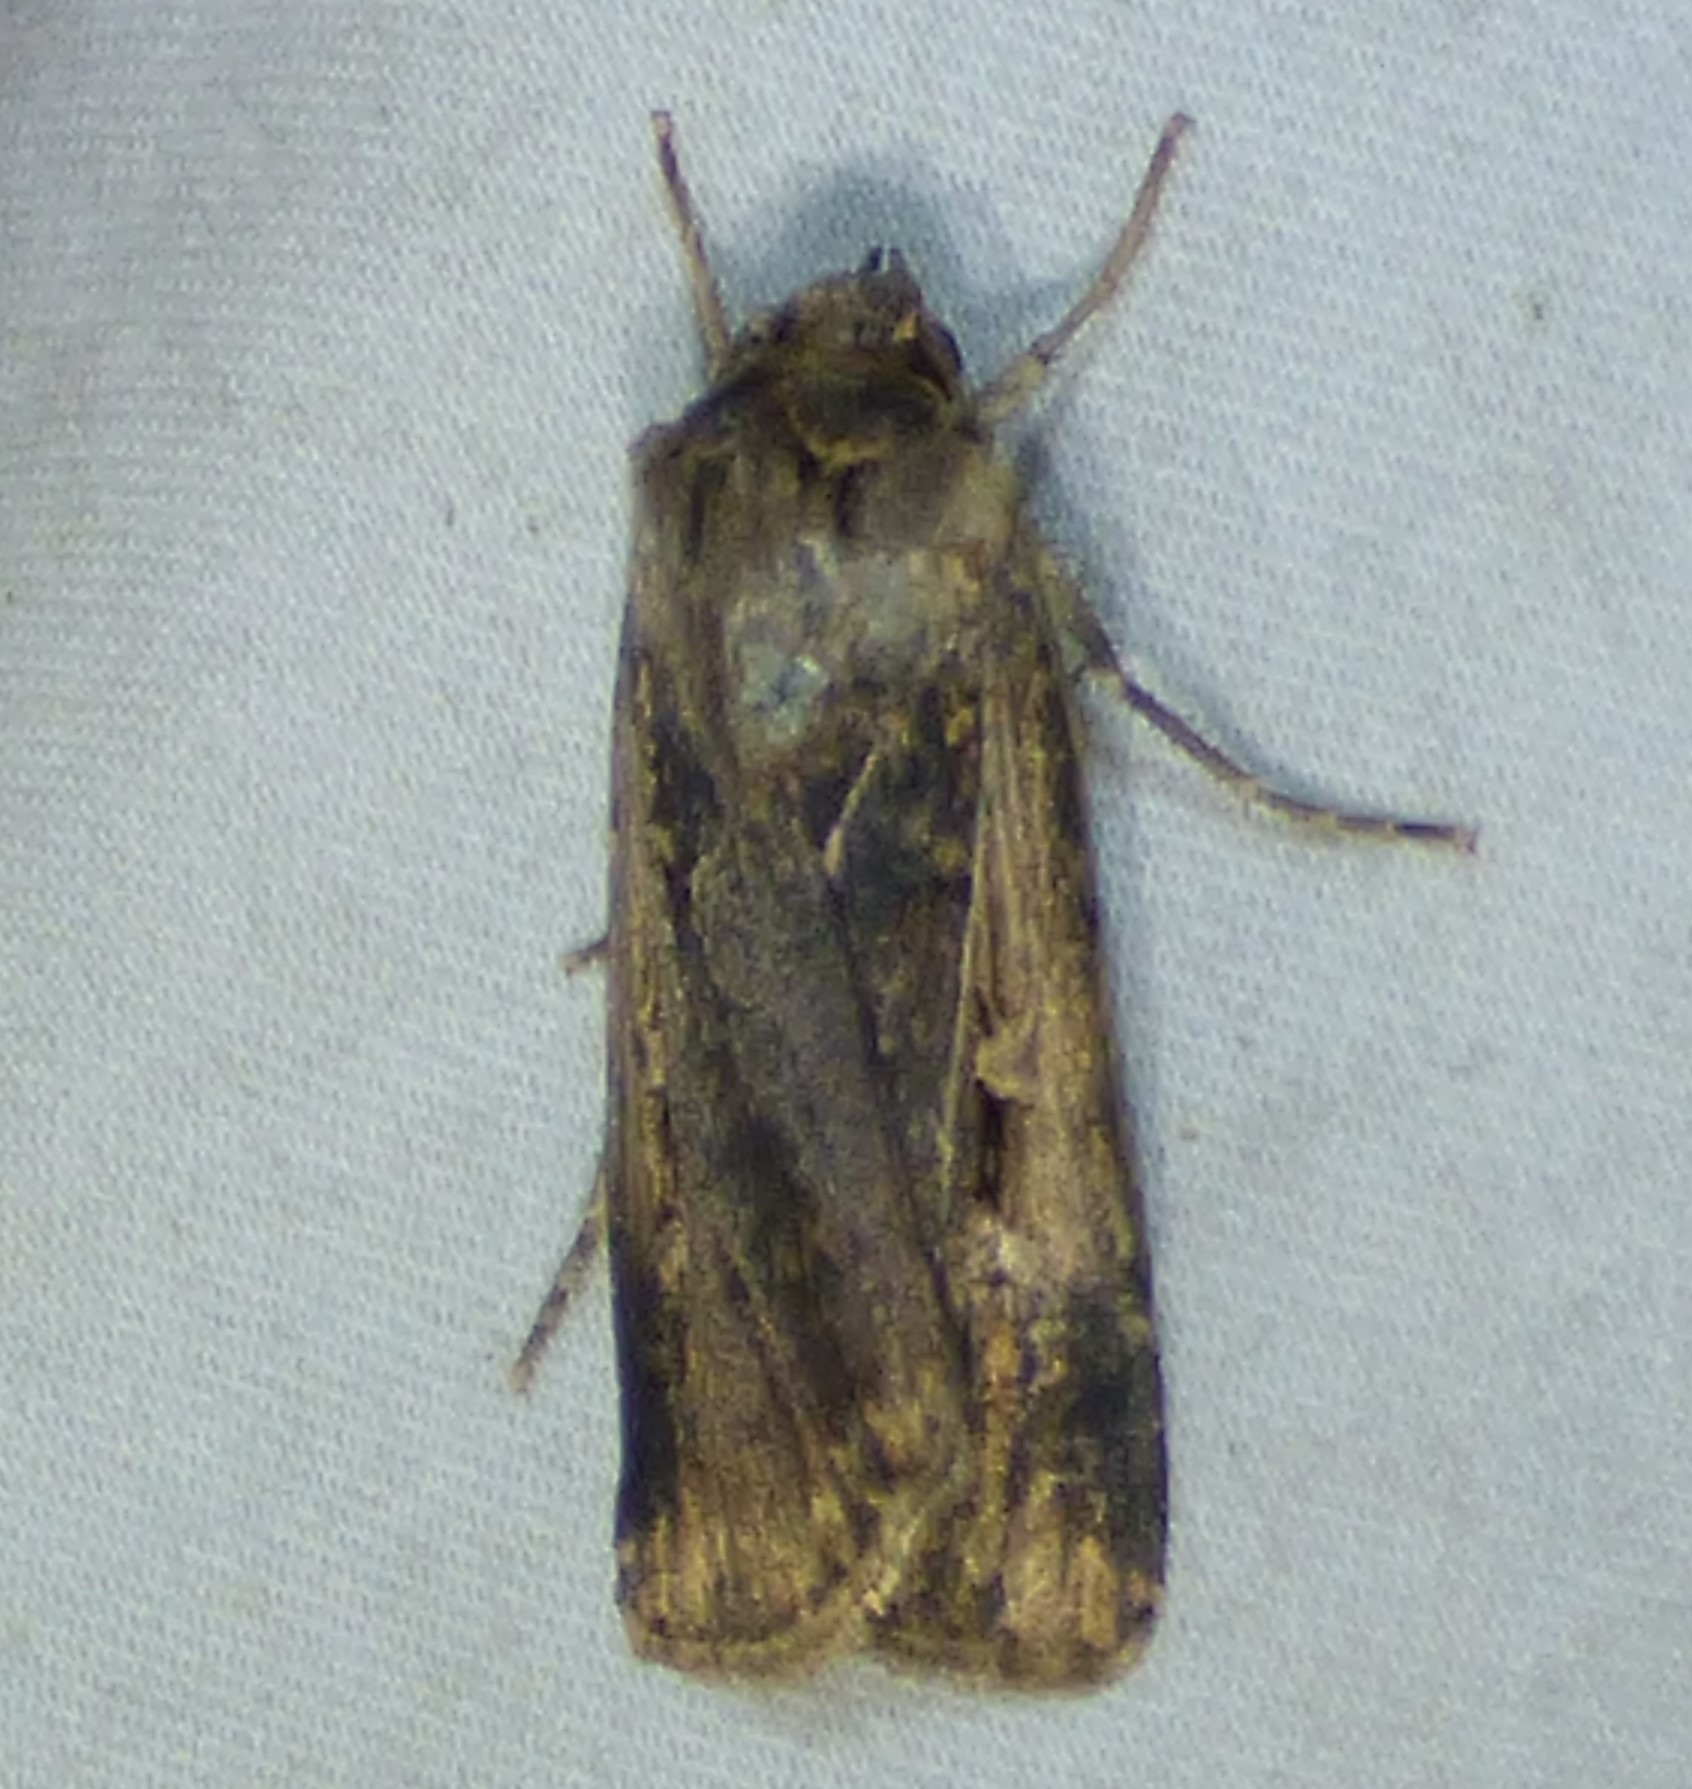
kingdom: Animalia
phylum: Arthropoda
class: Insecta
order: Lepidoptera
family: Noctuidae
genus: Feltia
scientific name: Feltia subterranea
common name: Granulate cutworm
